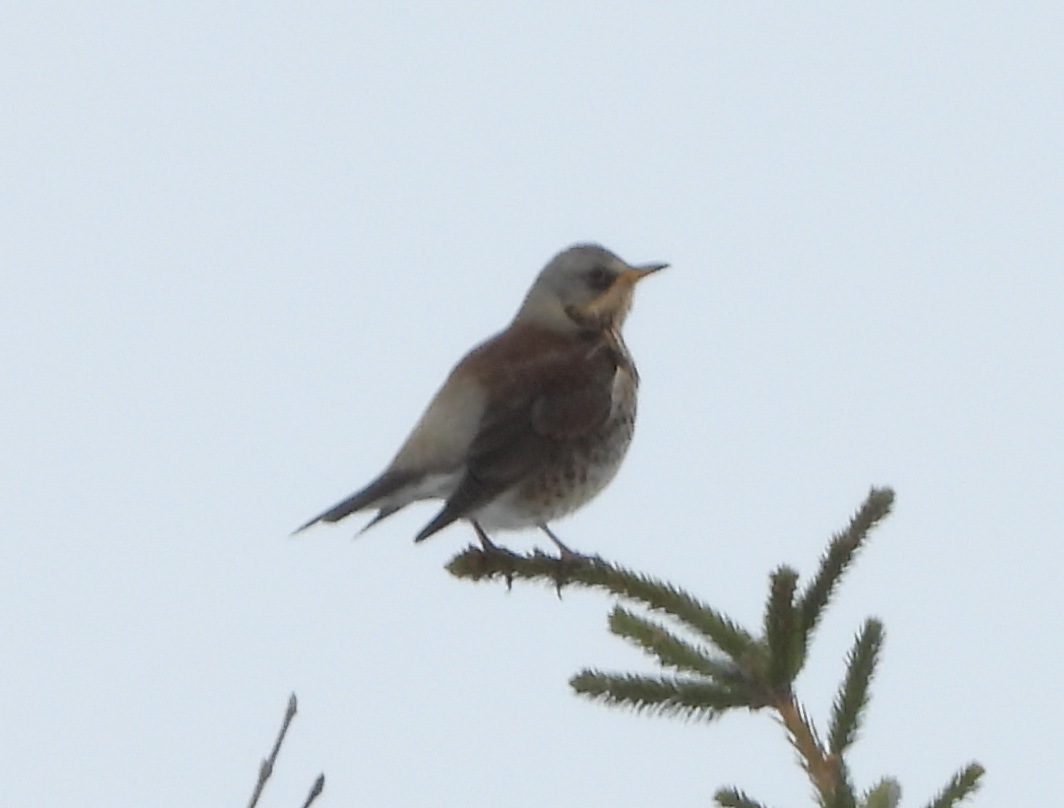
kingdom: Animalia
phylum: Chordata
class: Aves
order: Passeriformes
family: Turdidae
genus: Turdus
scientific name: Turdus pilaris
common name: Fieldfare
